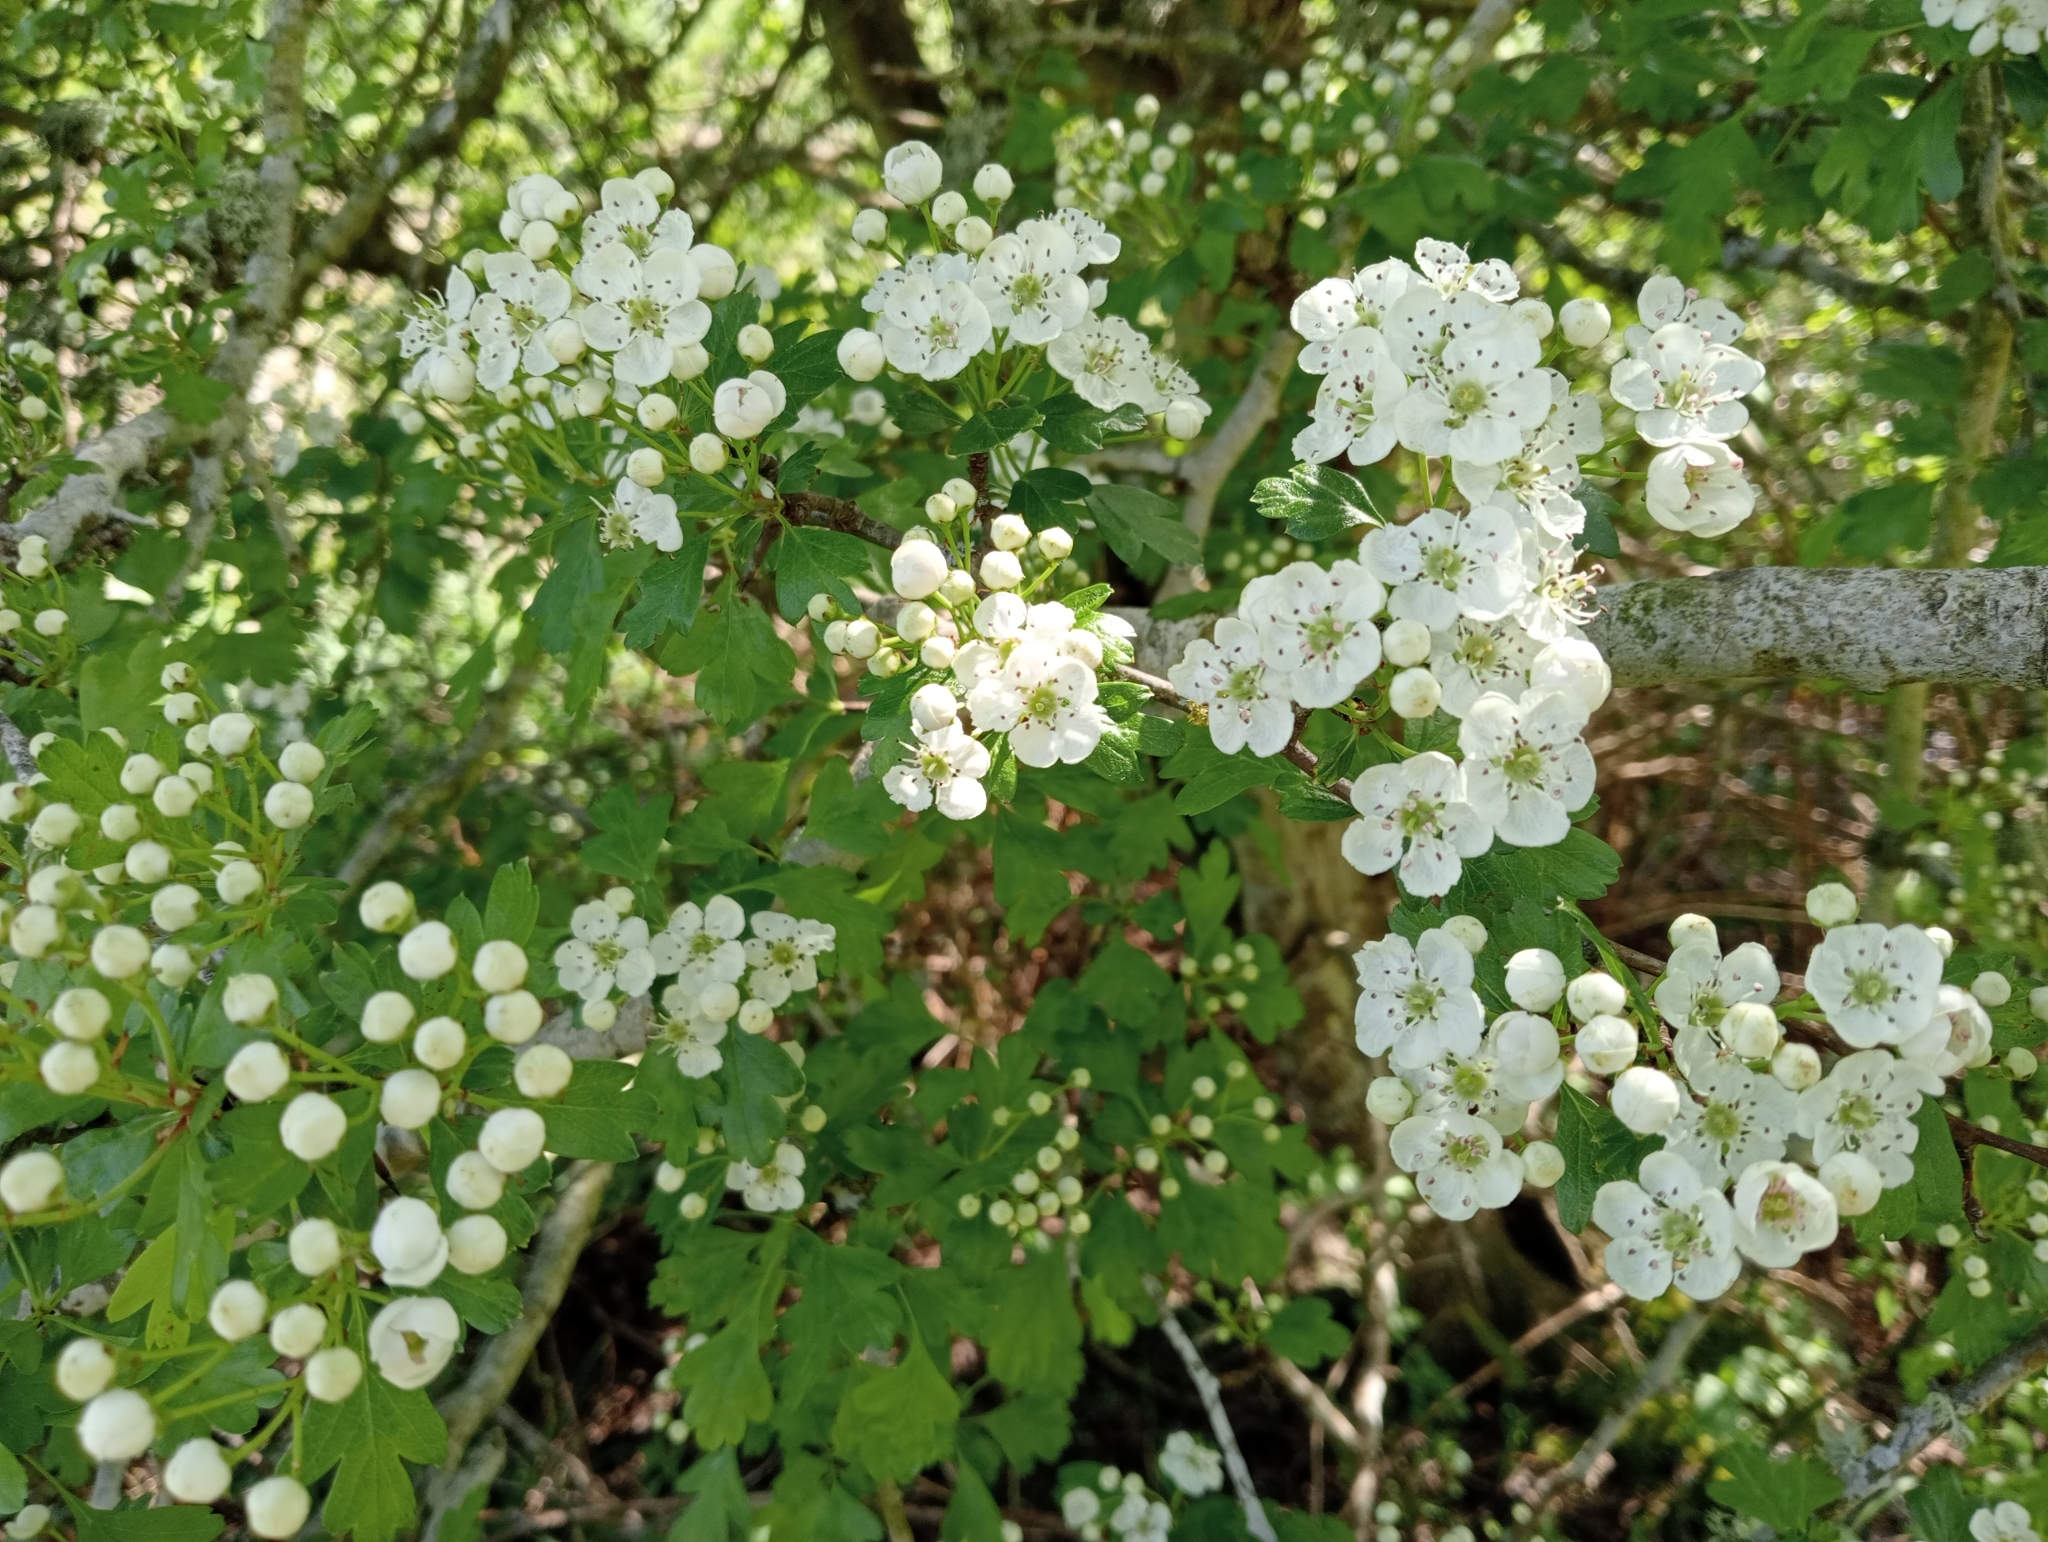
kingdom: Plantae
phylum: Tracheophyta
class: Magnoliopsida
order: Rosales
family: Rosaceae
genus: Crataegus
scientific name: Crataegus monogyna
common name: Hawthorn
